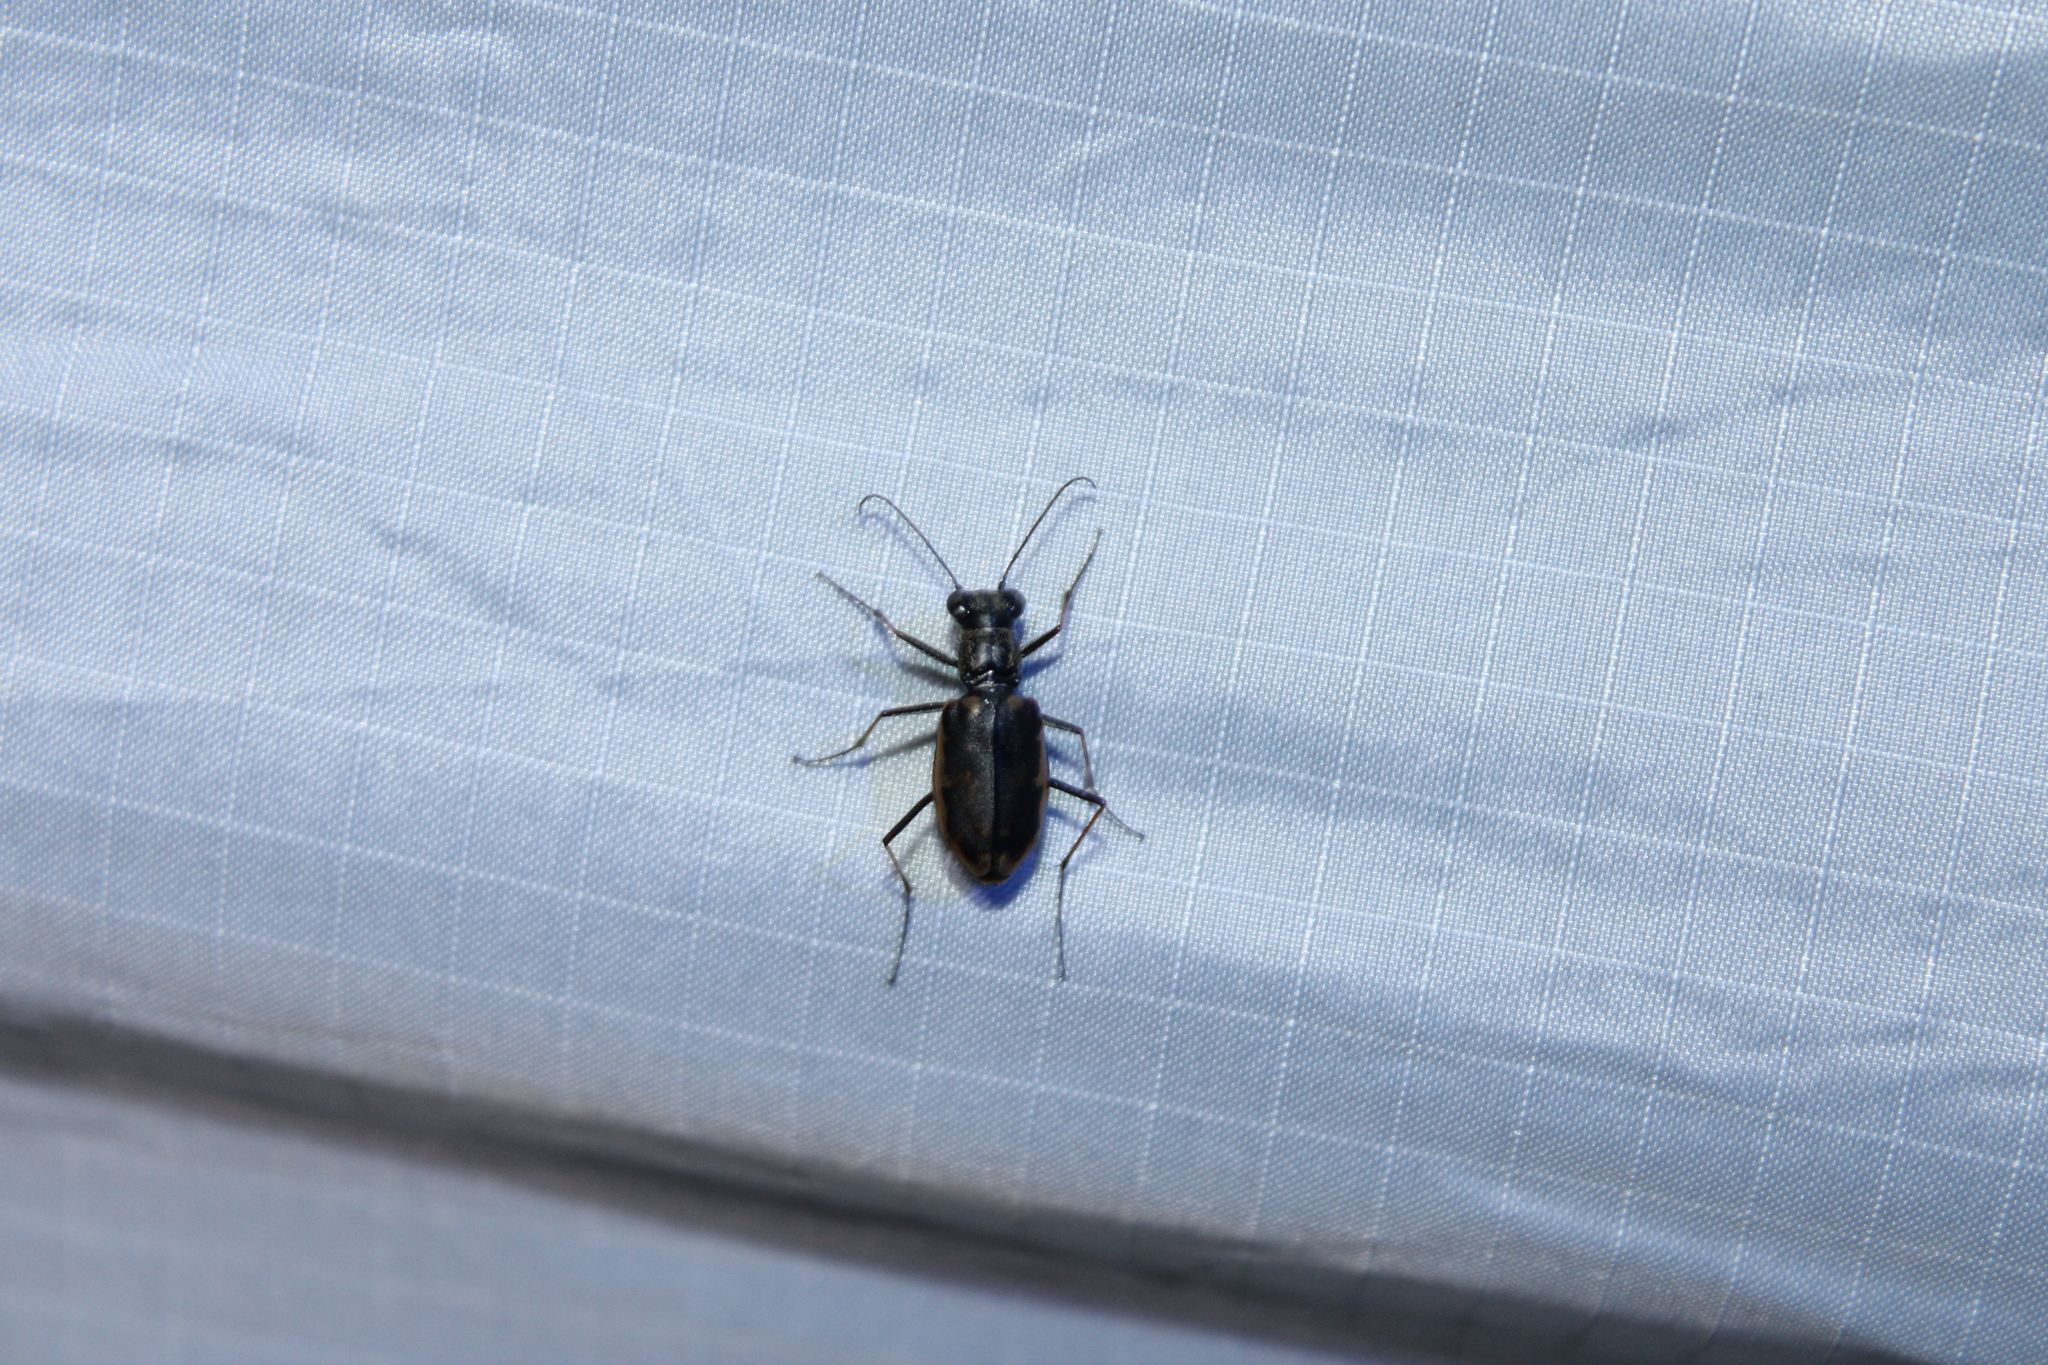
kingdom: Animalia
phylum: Arthropoda
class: Insecta
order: Coleoptera
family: Carabidae
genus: Cicindela
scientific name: Cicindela punctulata
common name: Punctured tiger beetle
